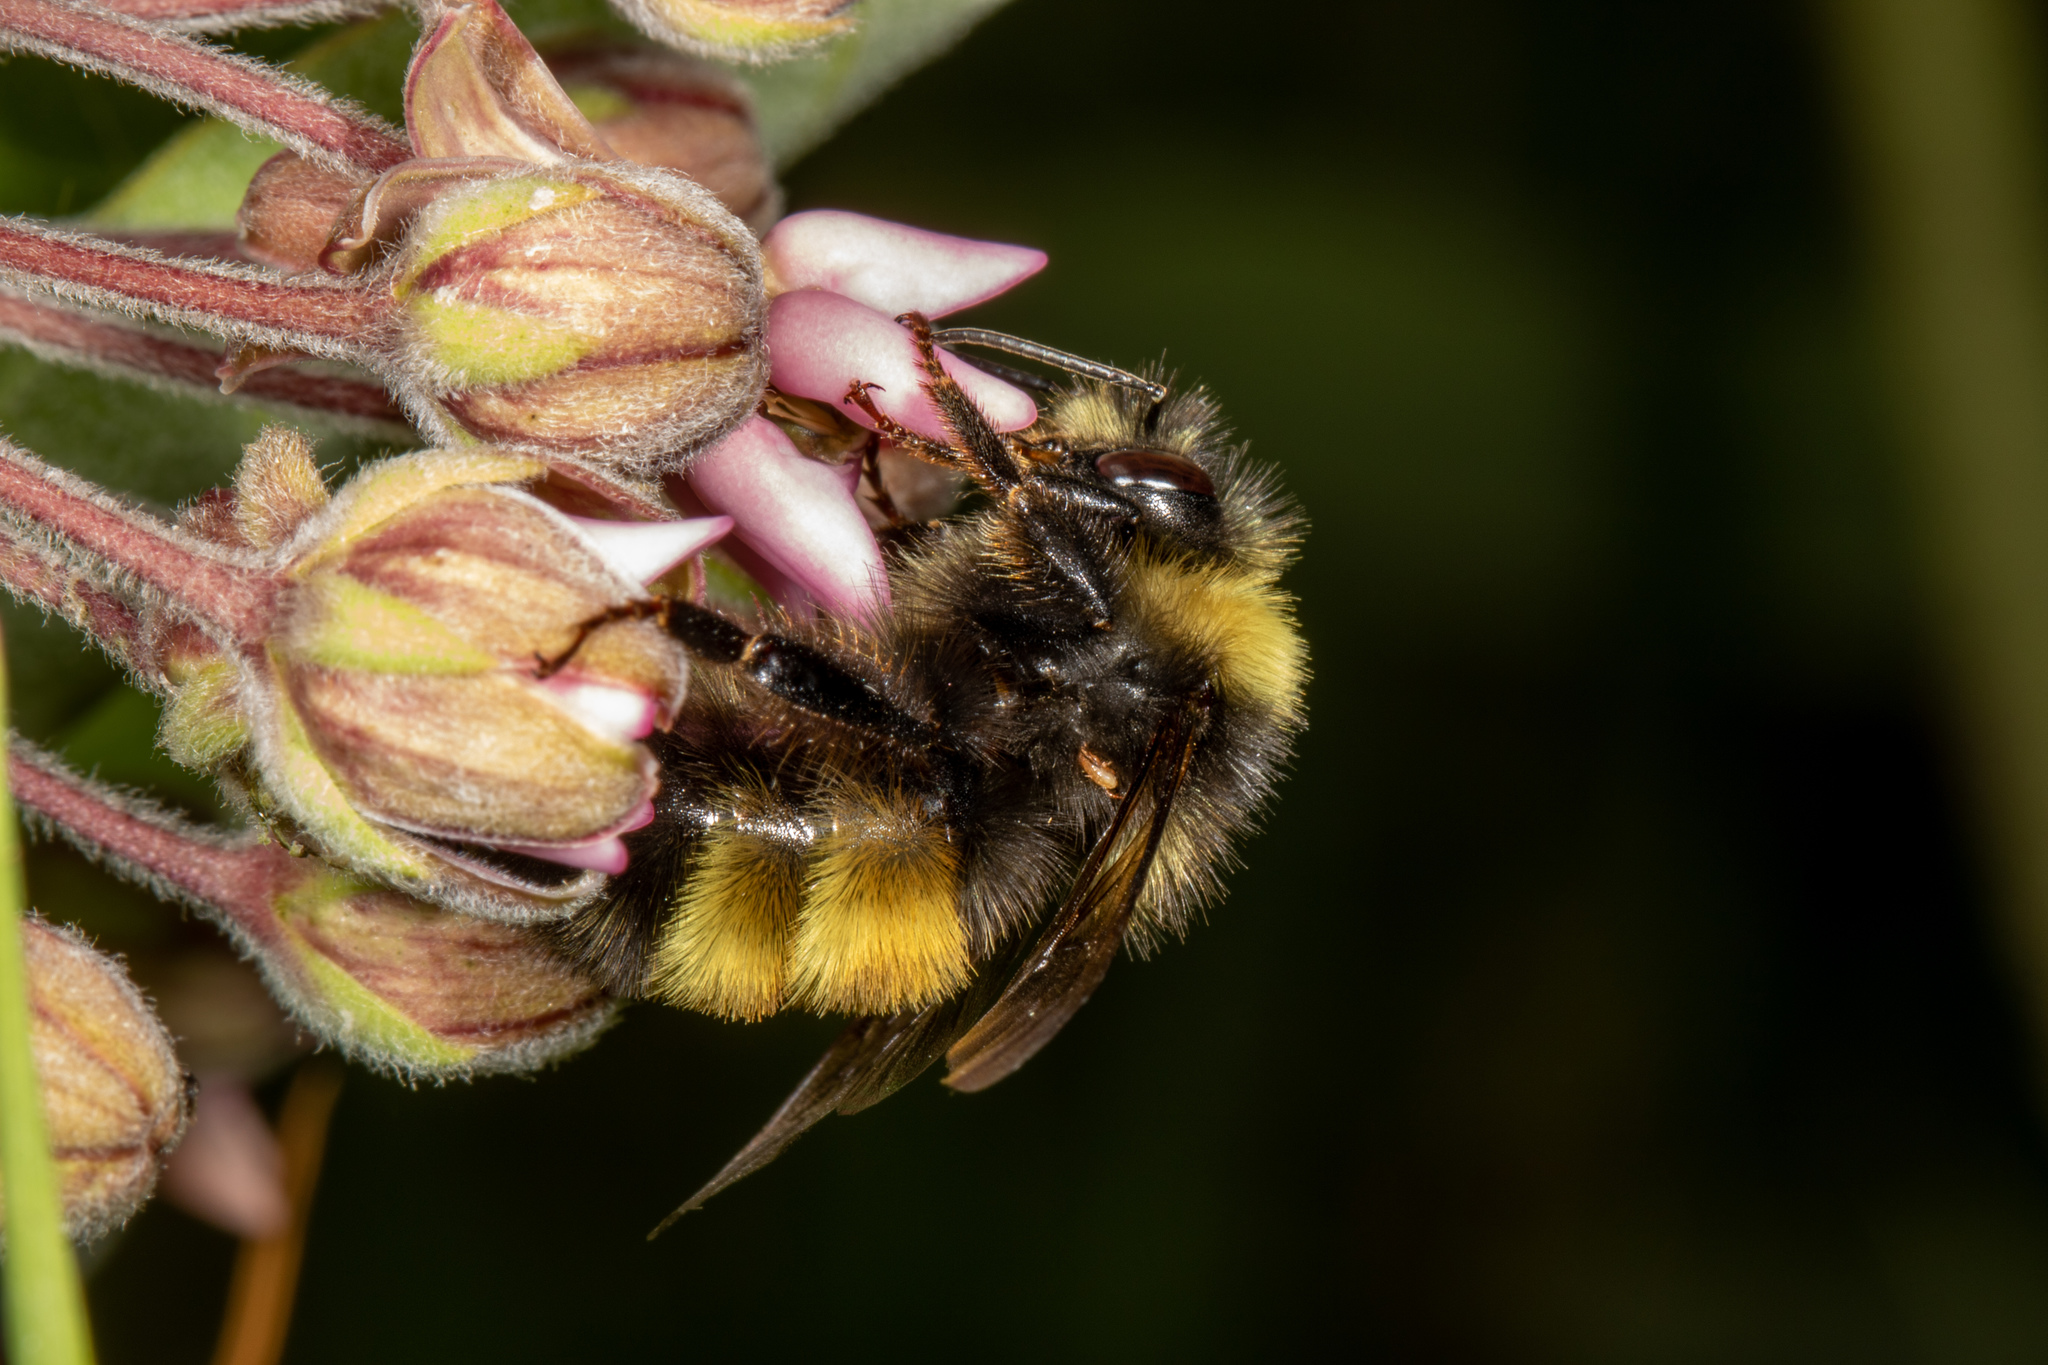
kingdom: Animalia
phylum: Arthropoda
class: Insecta
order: Hymenoptera
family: Apidae
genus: Bombus
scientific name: Bombus terricola
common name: Yellow-banded bumble bee
